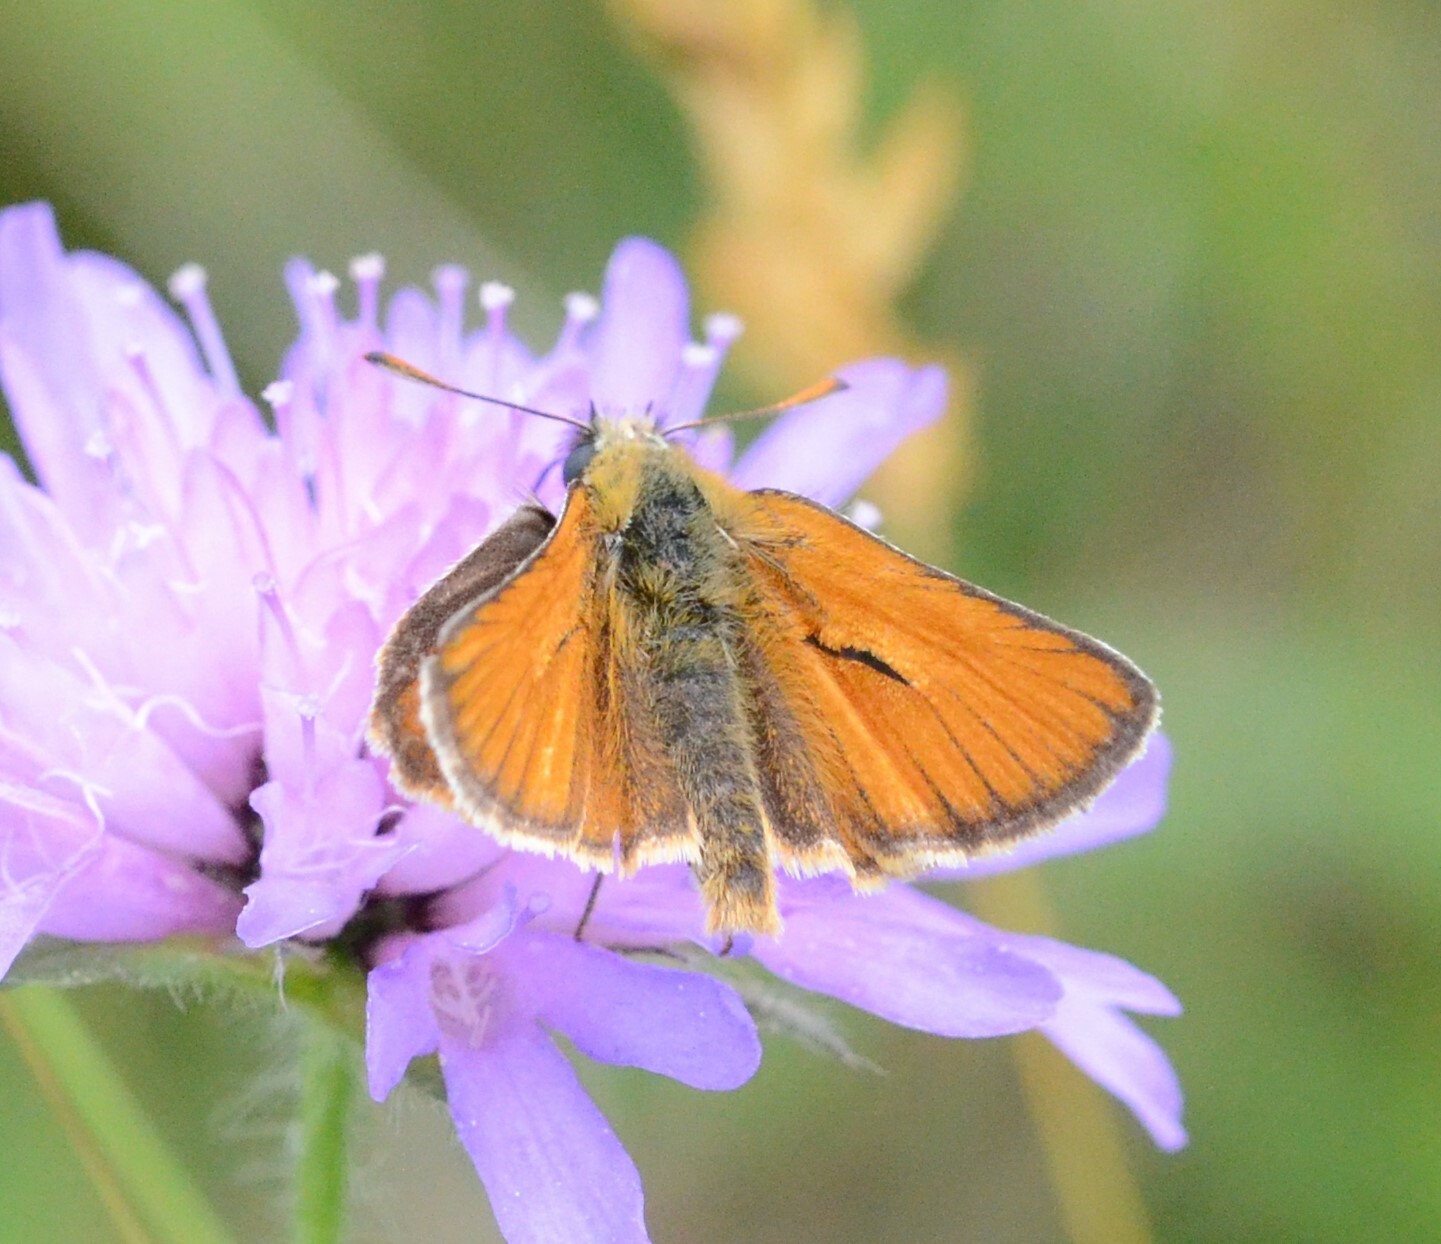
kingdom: Animalia
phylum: Arthropoda
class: Insecta
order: Lepidoptera
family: Hesperiidae
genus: Thymelicus
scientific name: Thymelicus sylvestris
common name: Small skipper
